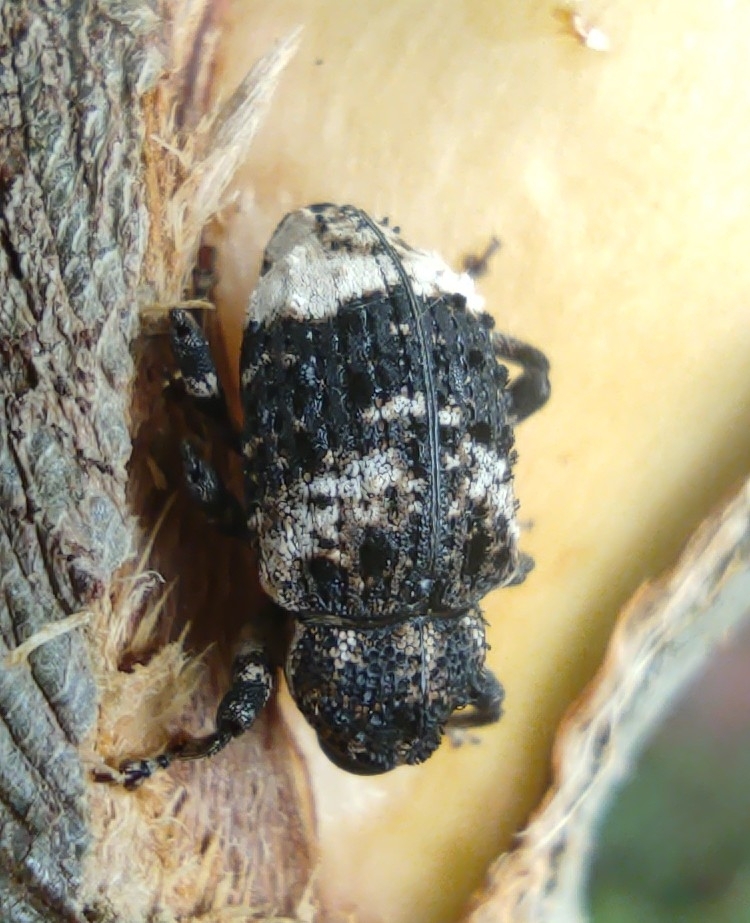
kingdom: Animalia
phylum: Arthropoda
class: Insecta
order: Coleoptera
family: Curculionidae
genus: Cryptorhynchus
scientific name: Cryptorhynchus lapathi
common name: Weevil
